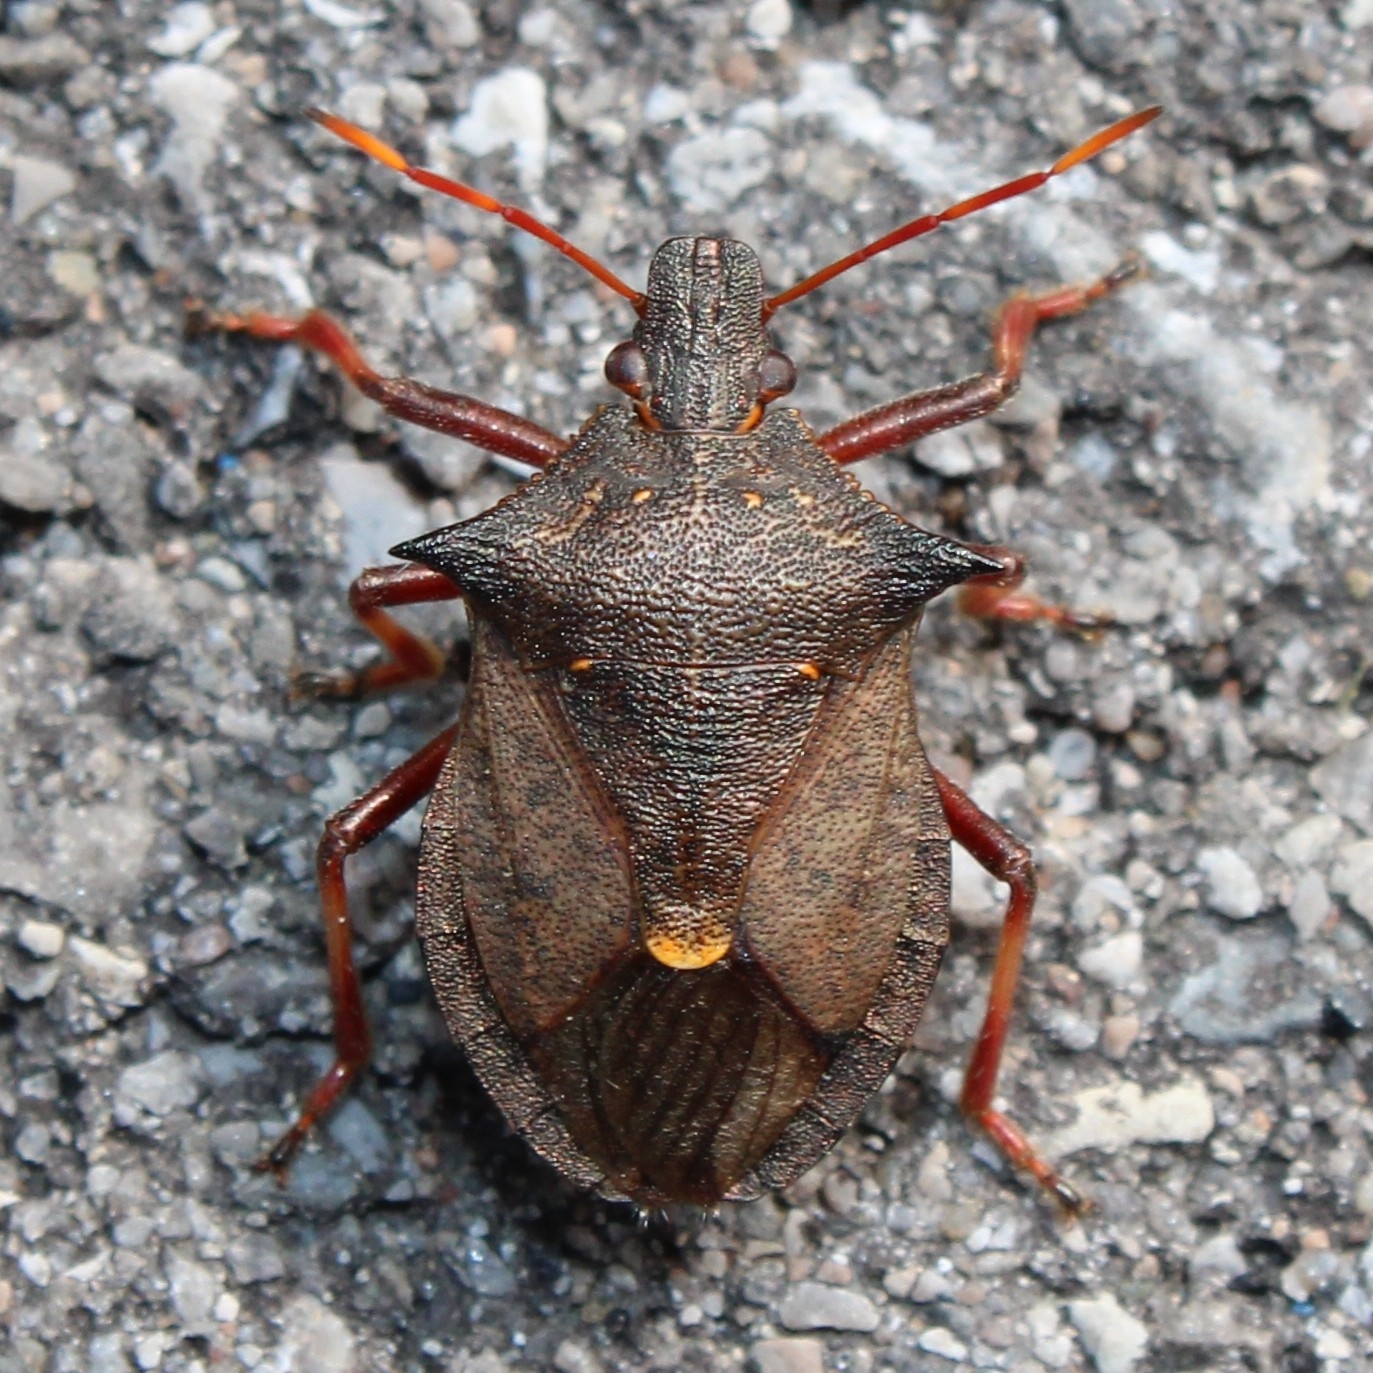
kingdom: Animalia
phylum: Arthropoda
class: Insecta
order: Hemiptera
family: Pentatomidae
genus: Picromerus
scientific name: Picromerus bidens
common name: Spiked shieldbug
